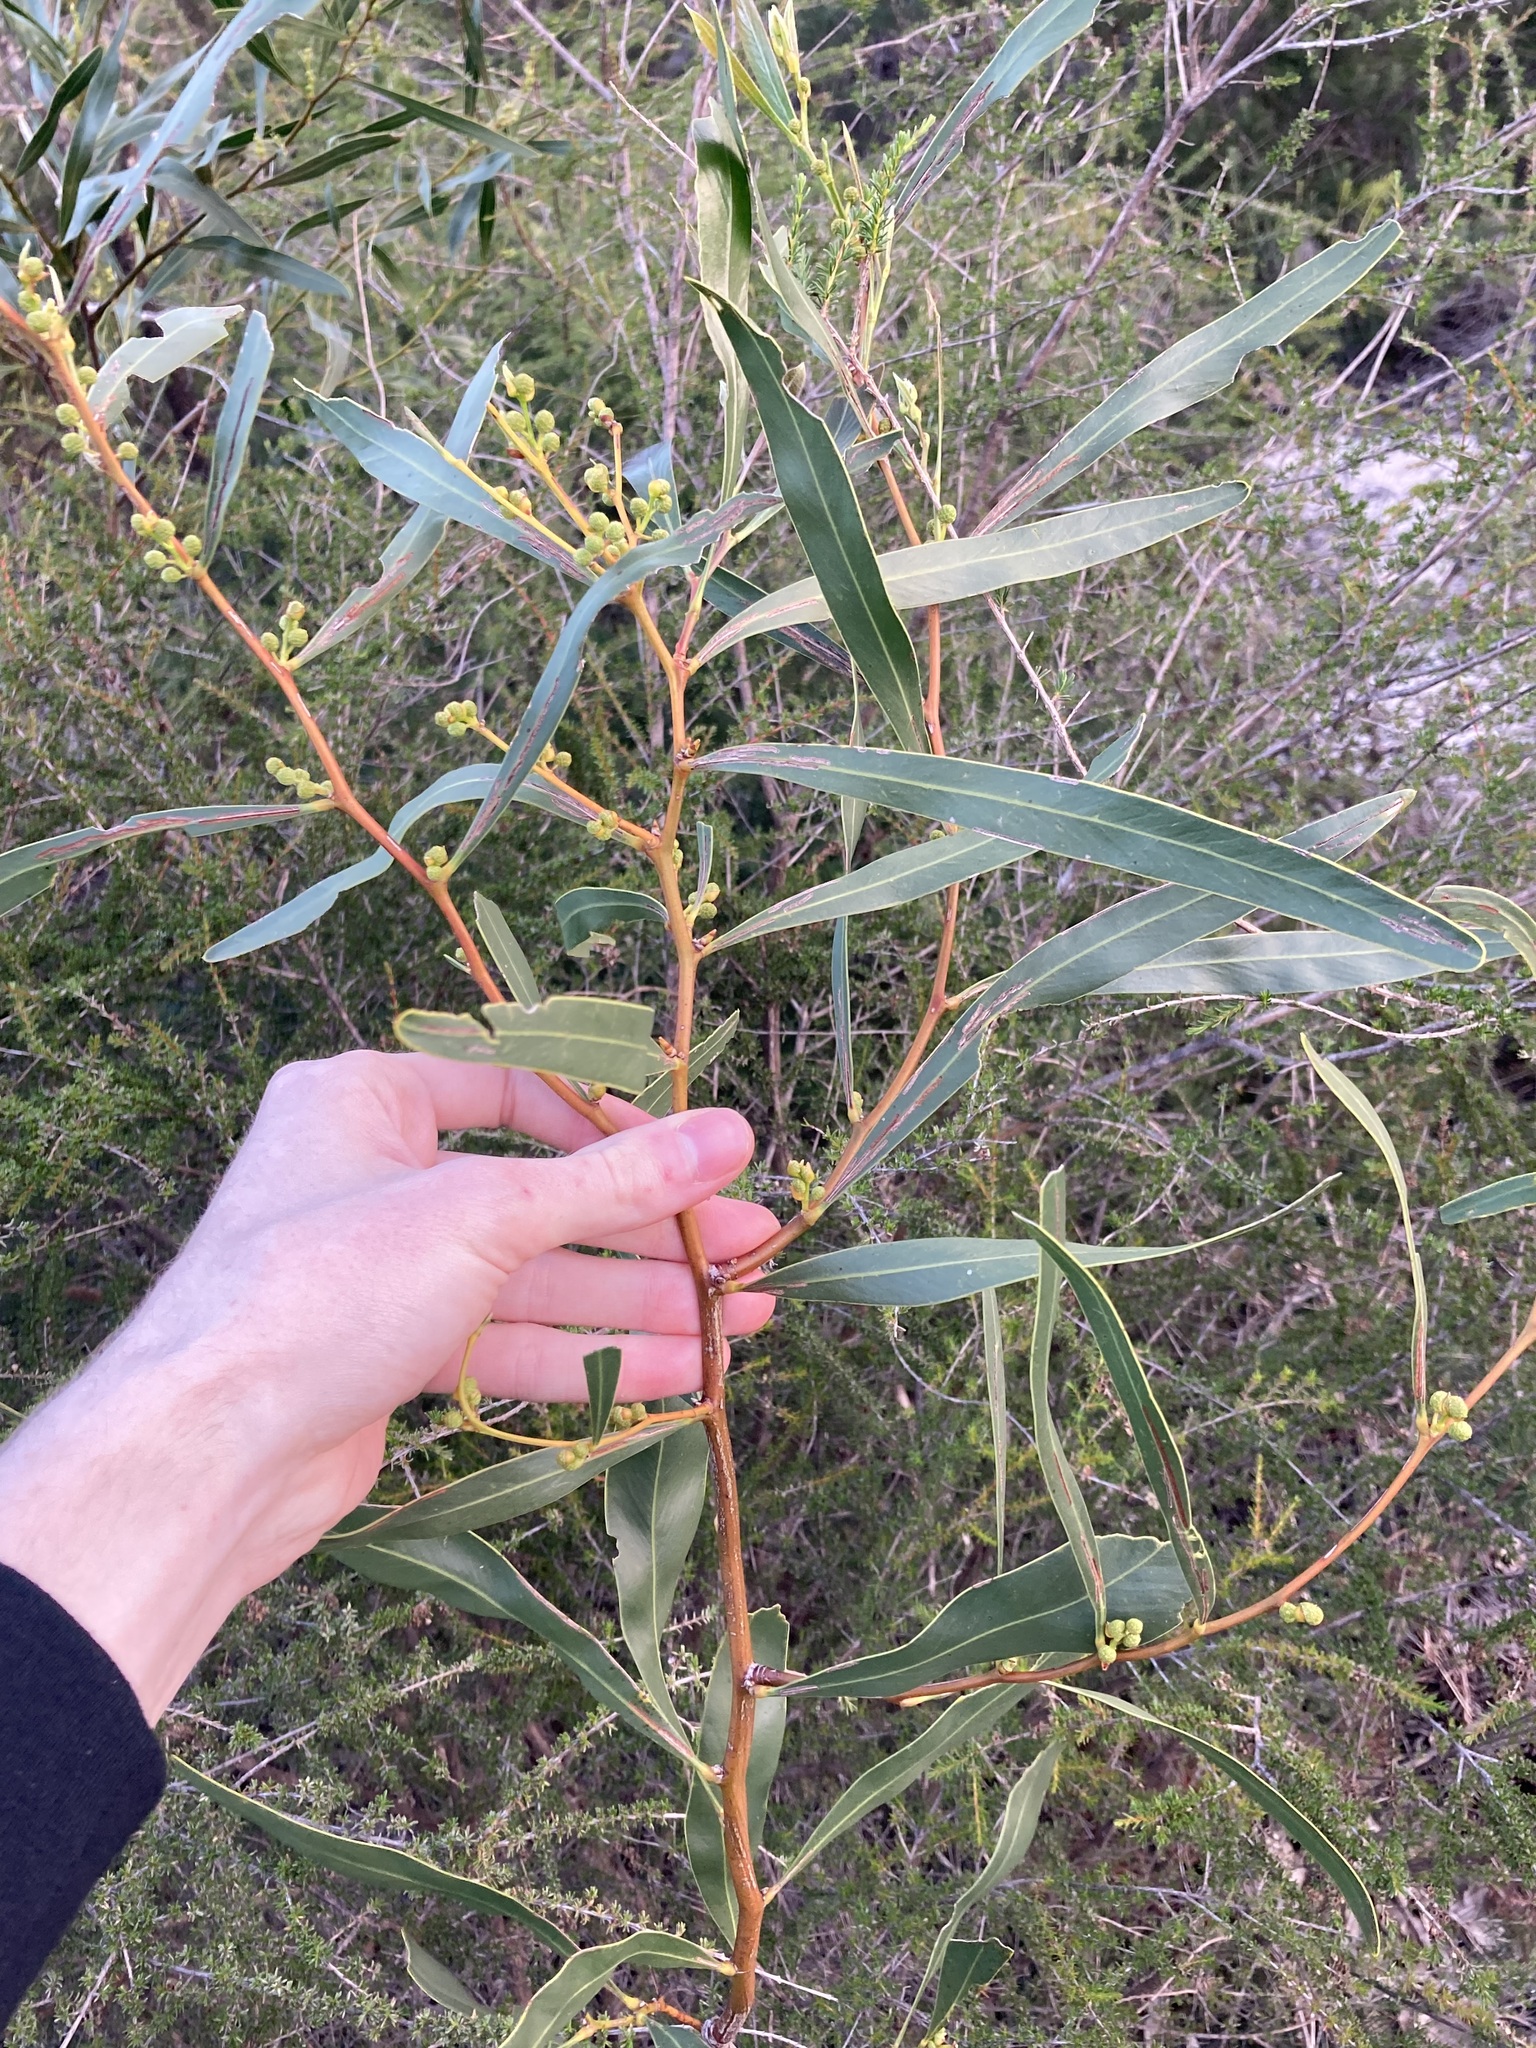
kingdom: Plantae
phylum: Tracheophyta
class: Magnoliopsida
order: Fabales
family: Fabaceae
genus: Acacia
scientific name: Acacia saligna
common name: Orange wattle
